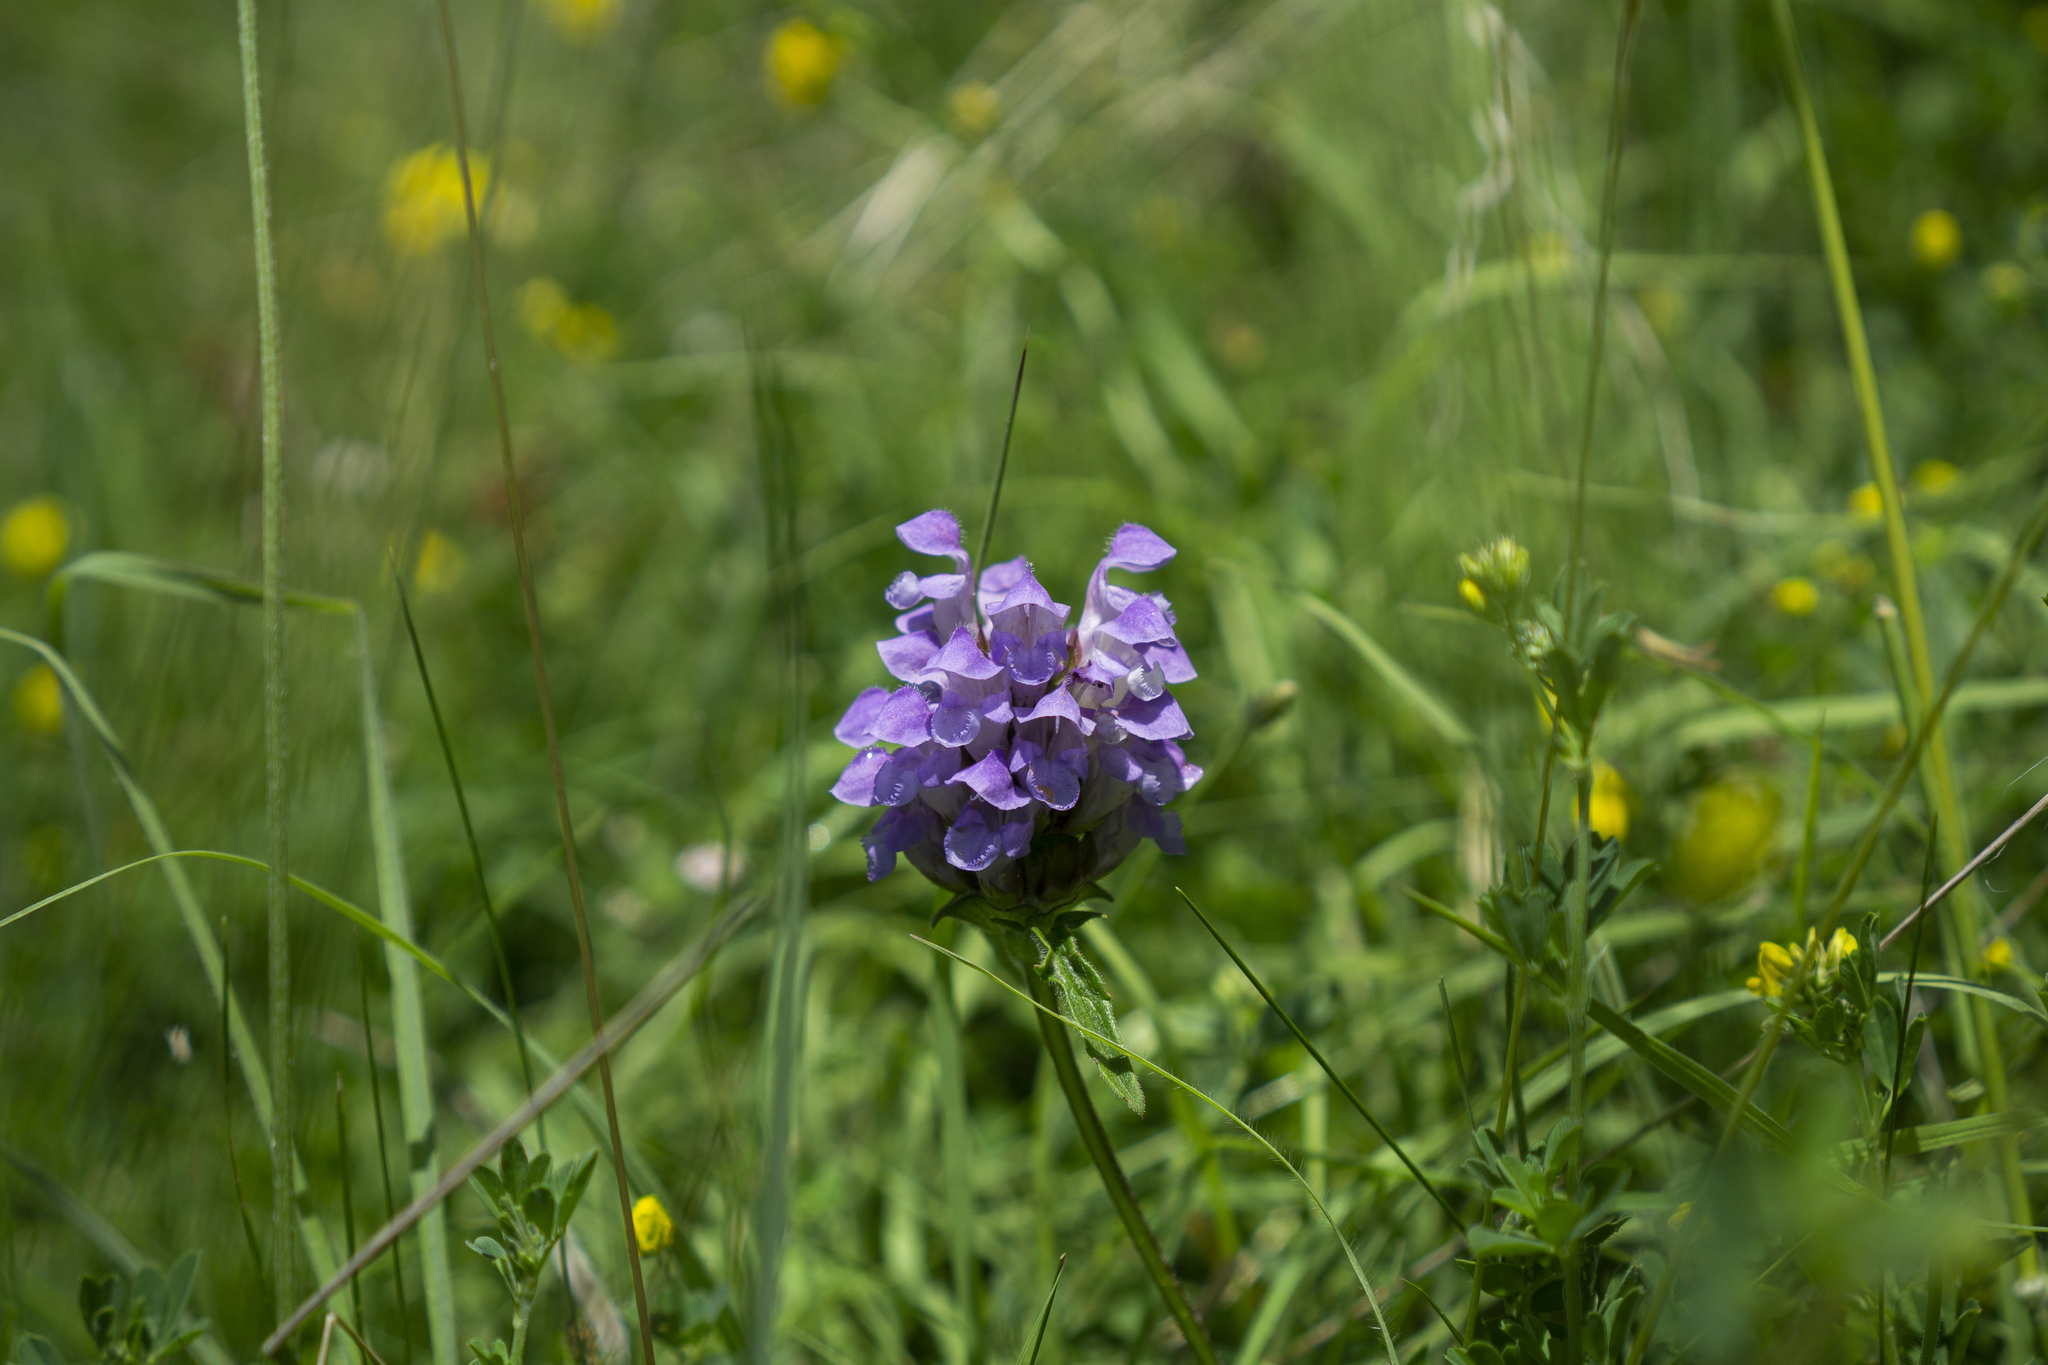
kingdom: Plantae
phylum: Tracheophyta
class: Magnoliopsida
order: Lamiales
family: Lamiaceae
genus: Prunella
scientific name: Prunella intermedia
